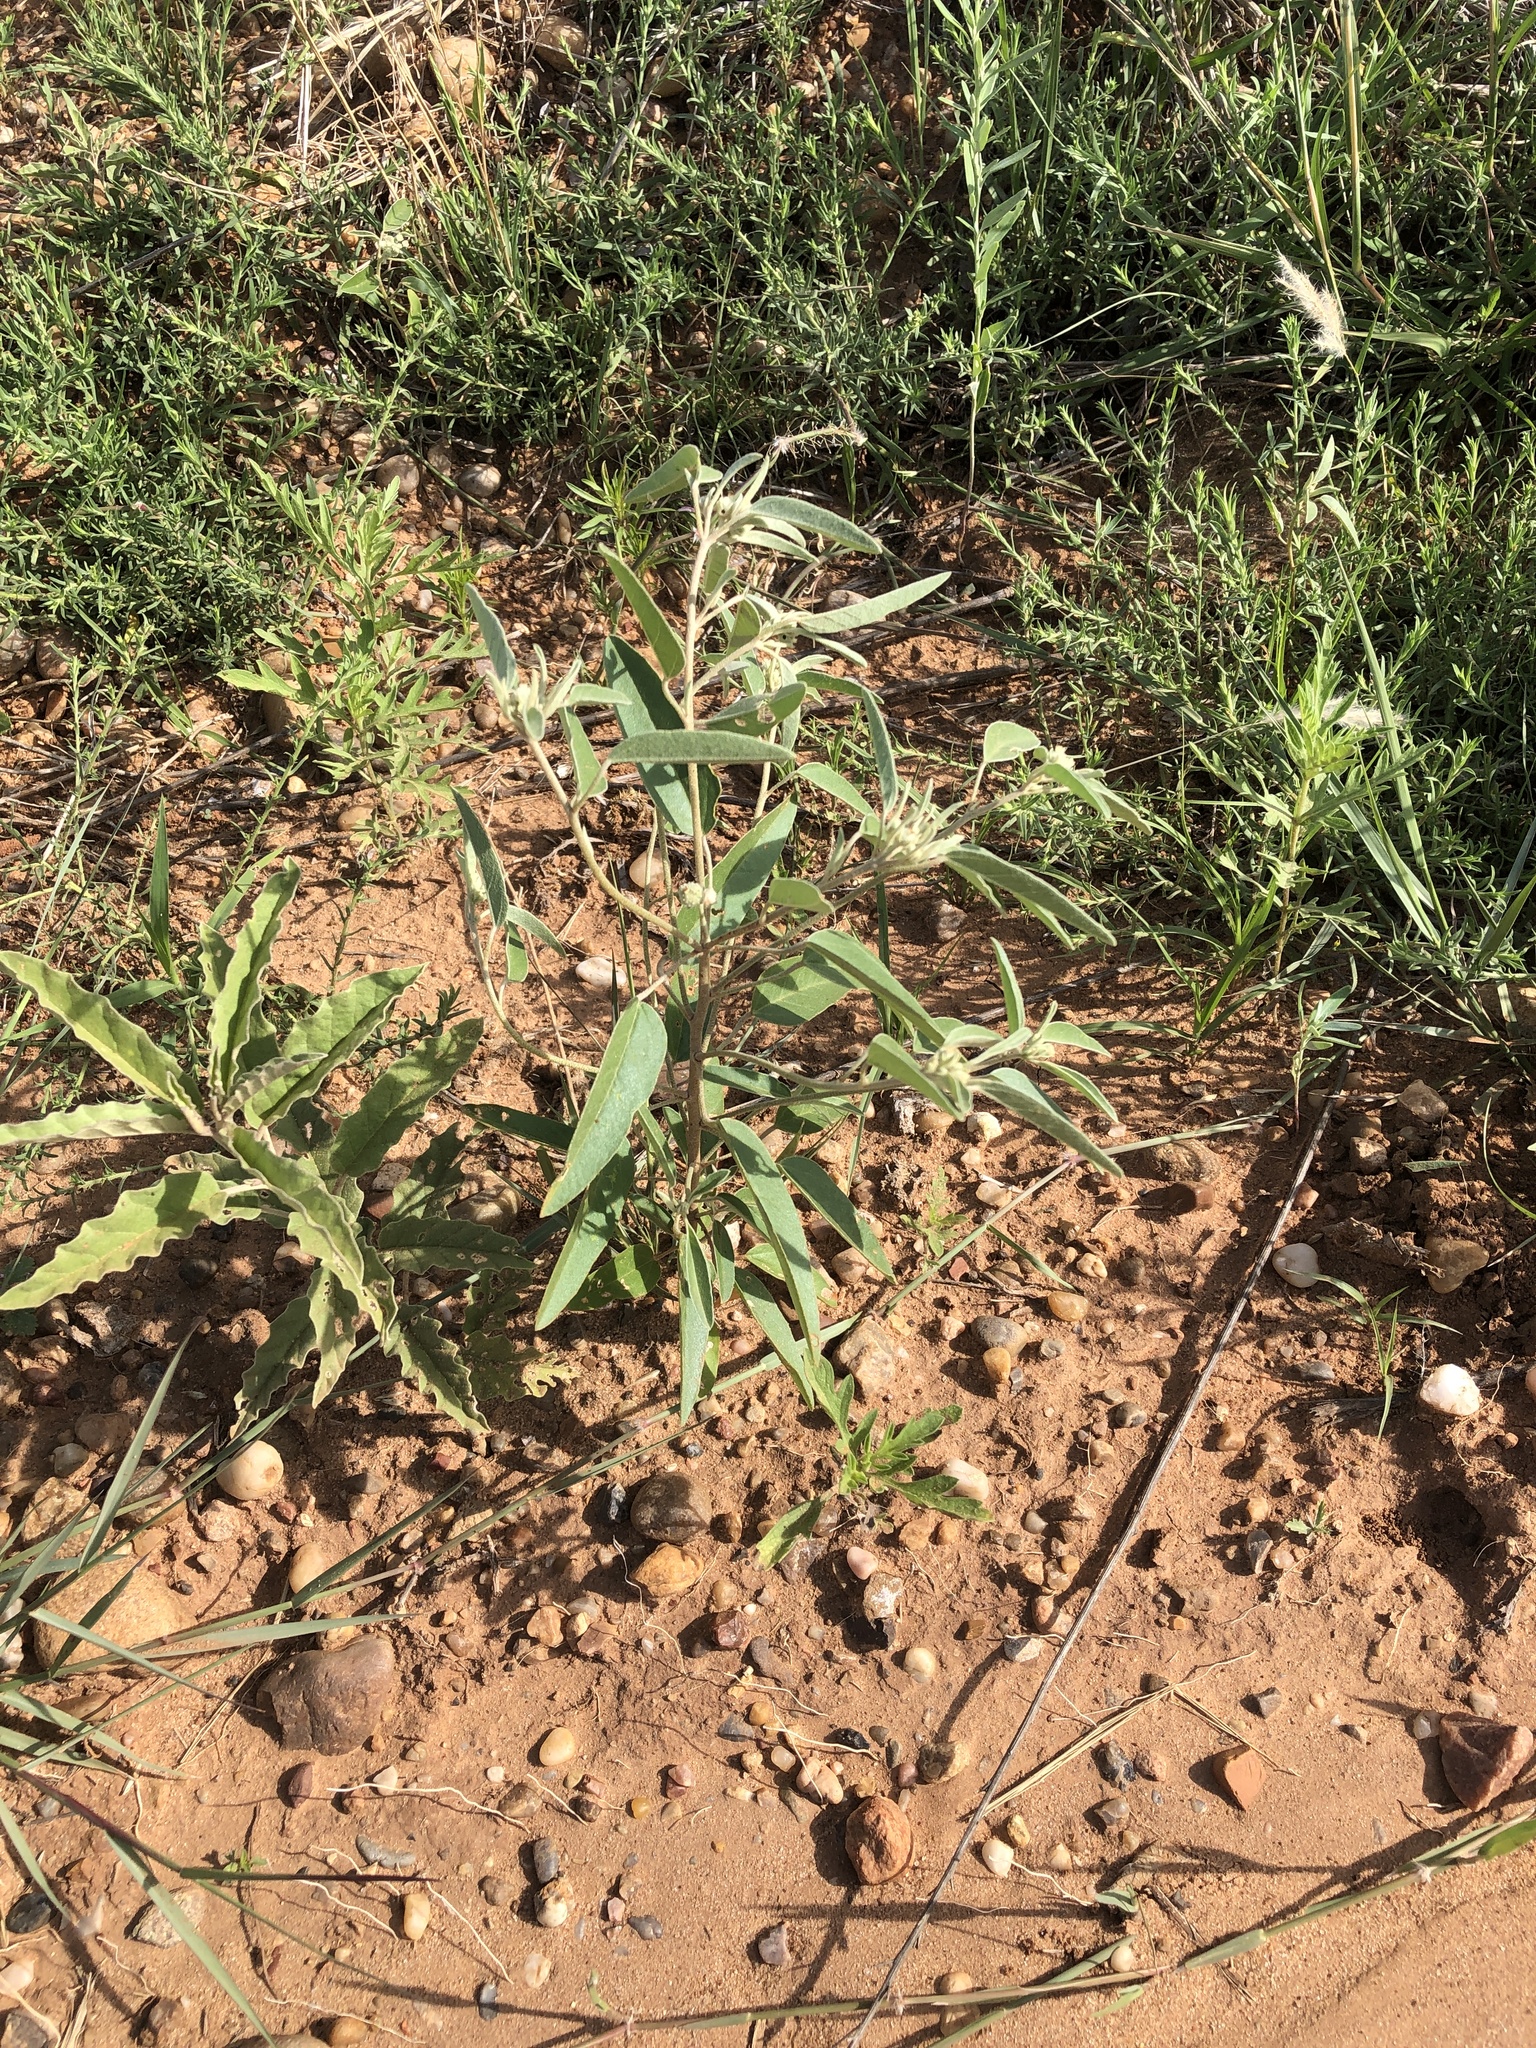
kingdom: Plantae
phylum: Tracheophyta
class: Magnoliopsida
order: Malpighiales
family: Euphorbiaceae
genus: Croton
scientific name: Croton texensis
